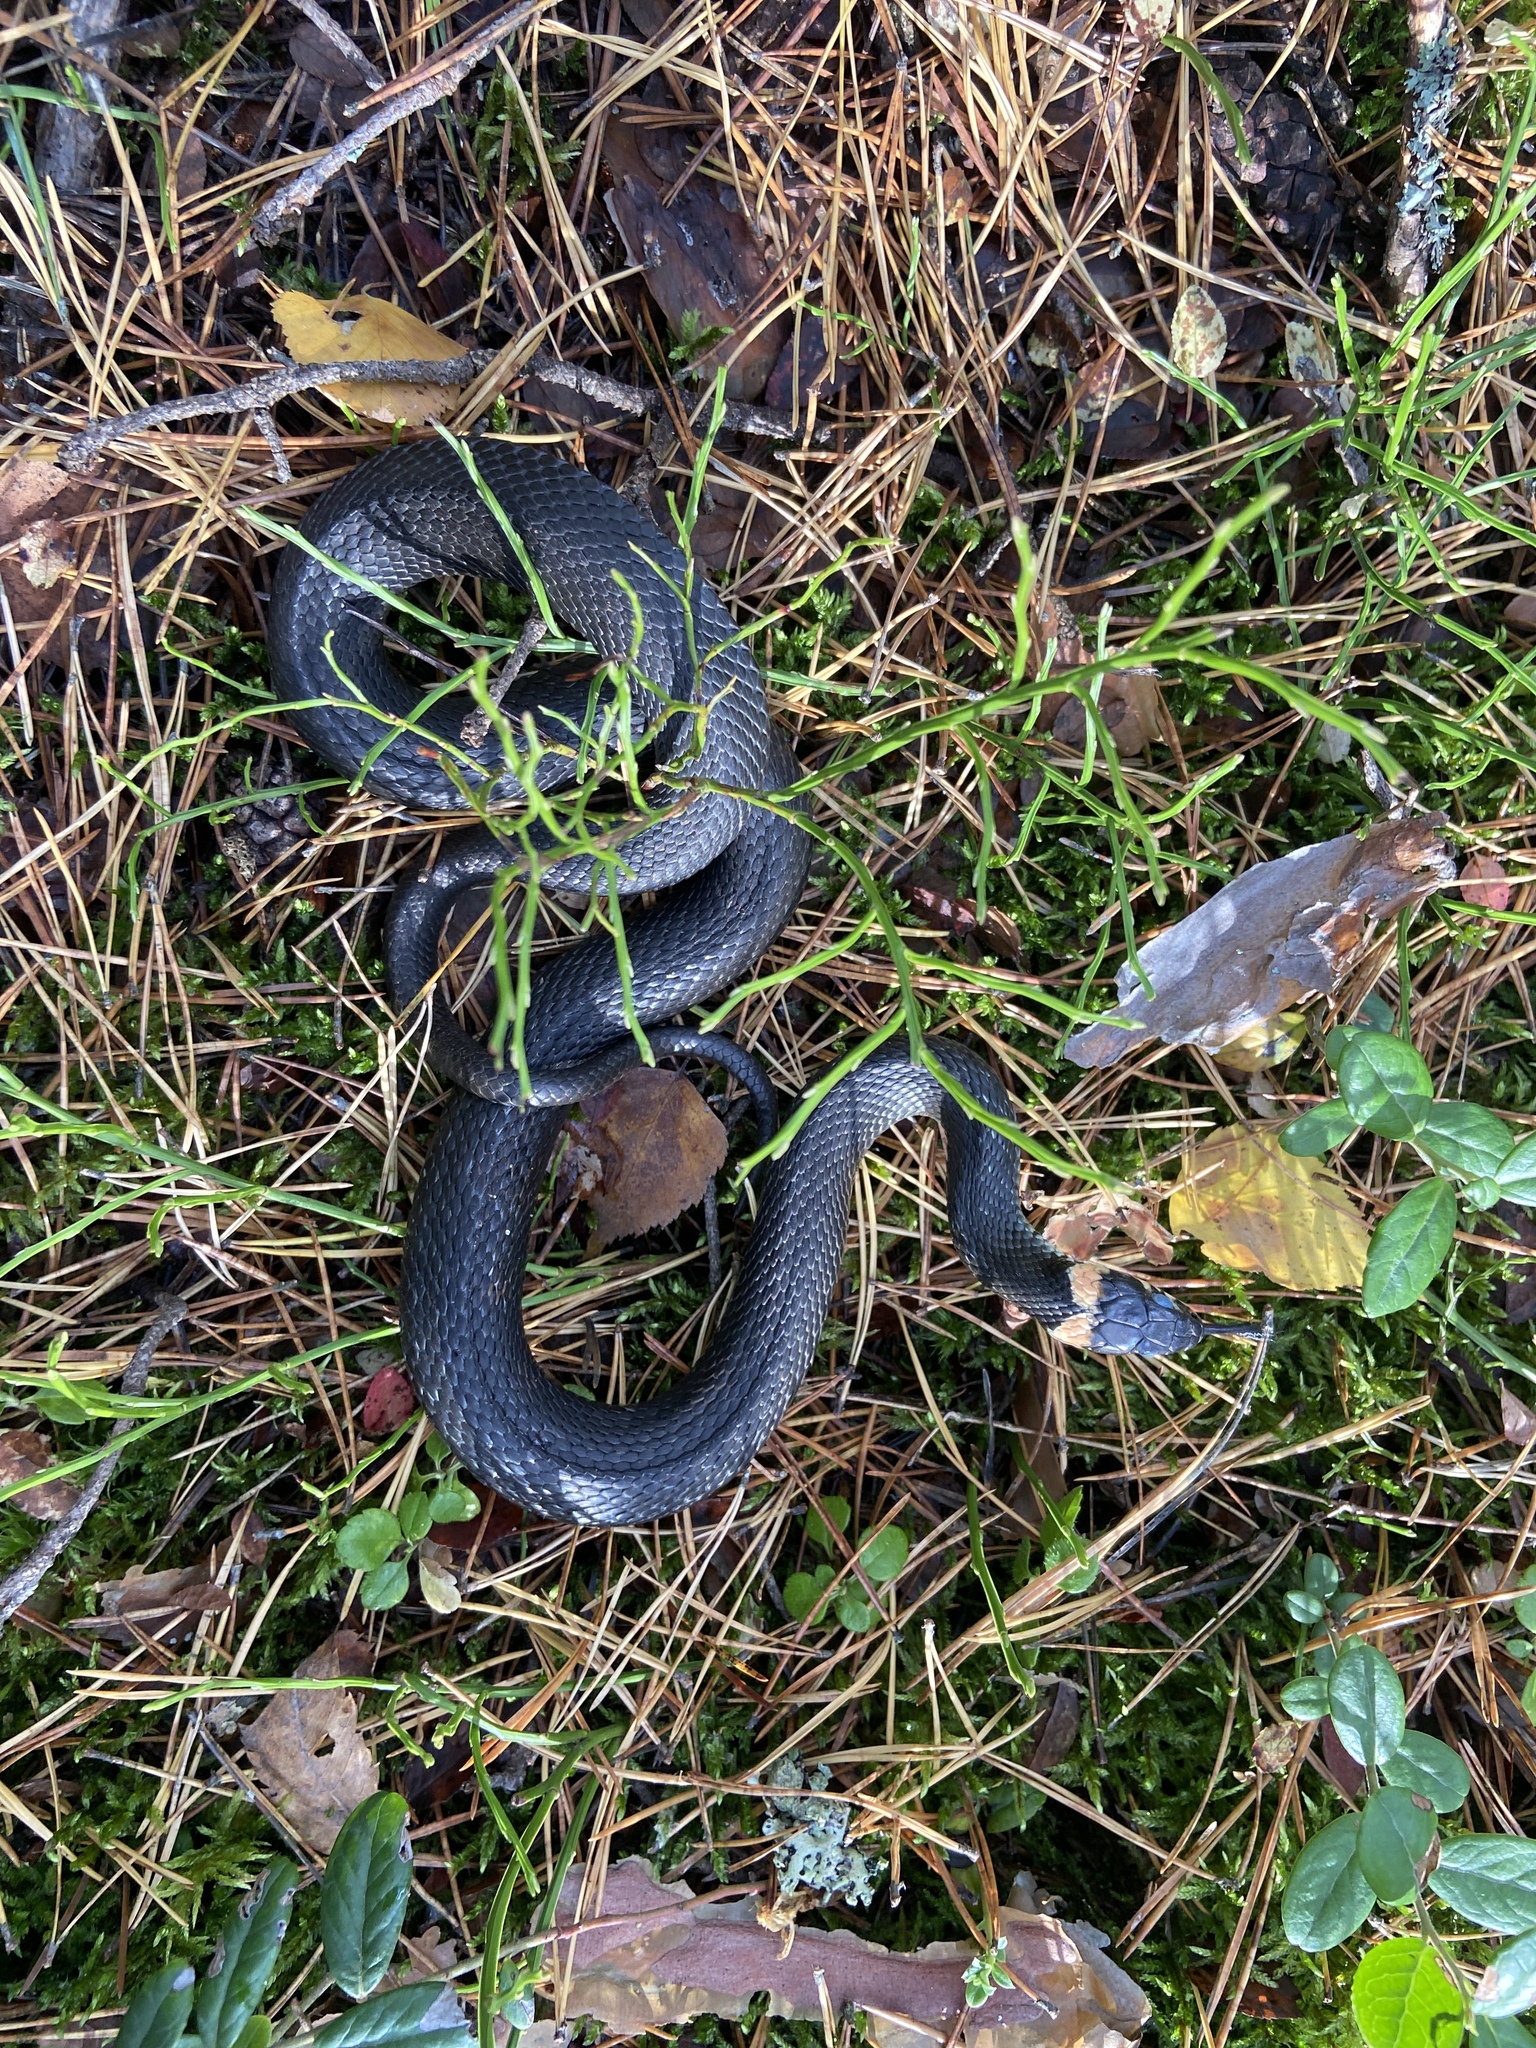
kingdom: Animalia
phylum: Chordata
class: Squamata
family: Colubridae
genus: Natrix
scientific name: Natrix natrix
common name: Grass snake
